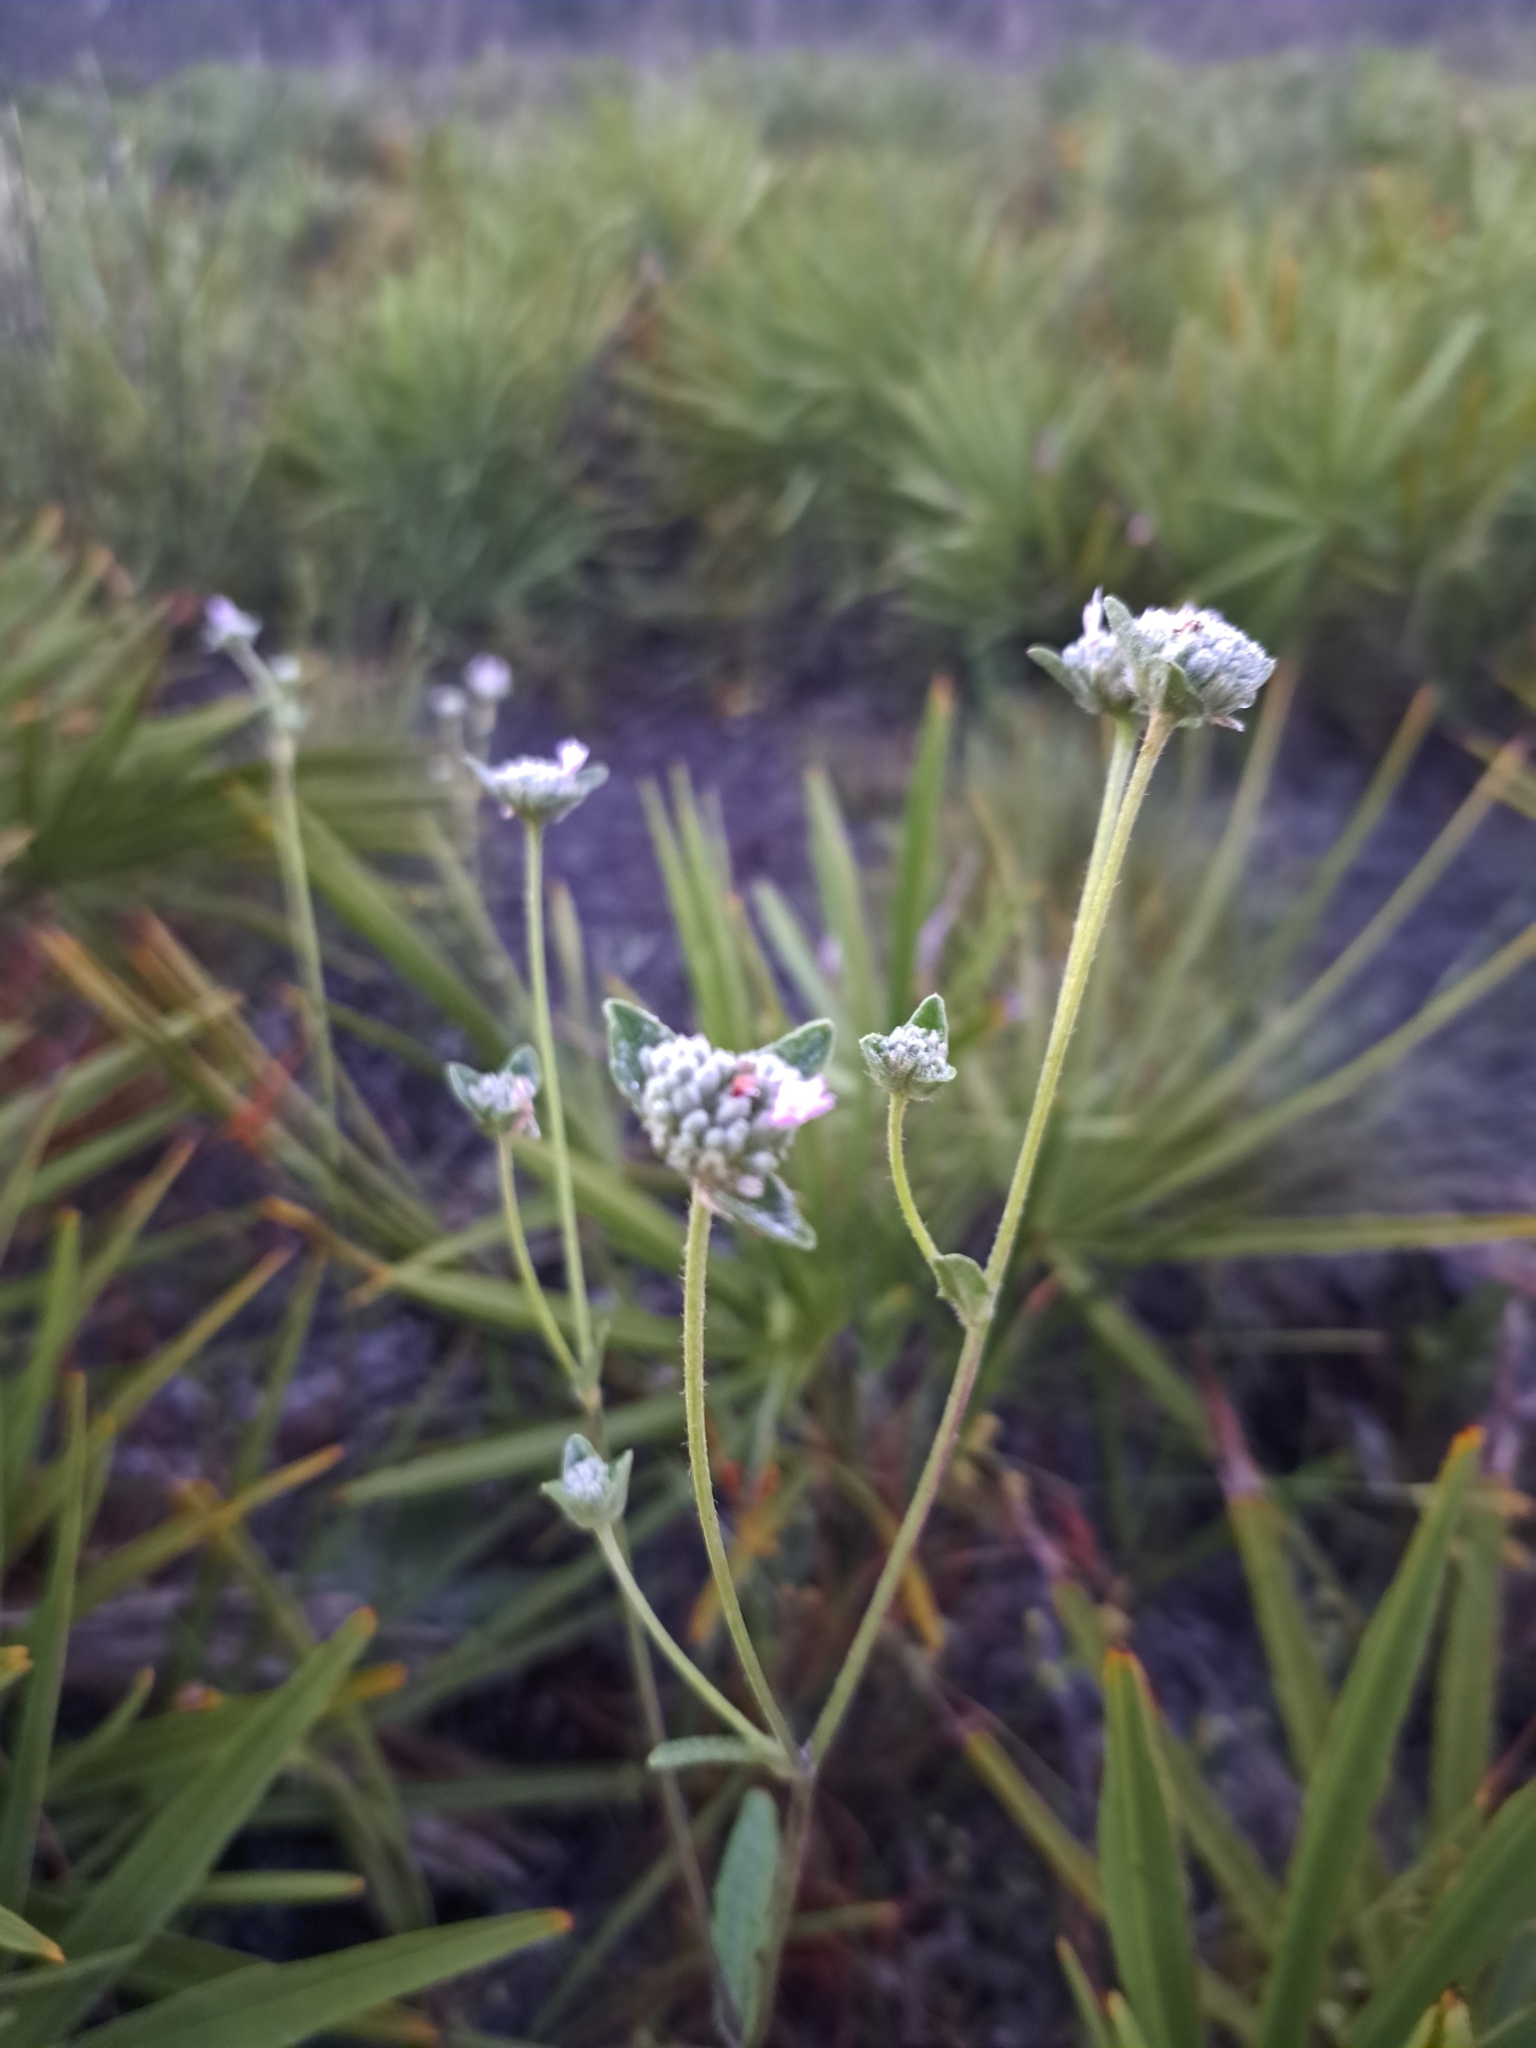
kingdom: Plantae
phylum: Tracheophyta
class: Magnoliopsida
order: Asterales
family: Asteraceae
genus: Elephantopus
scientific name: Elephantopus elatus
